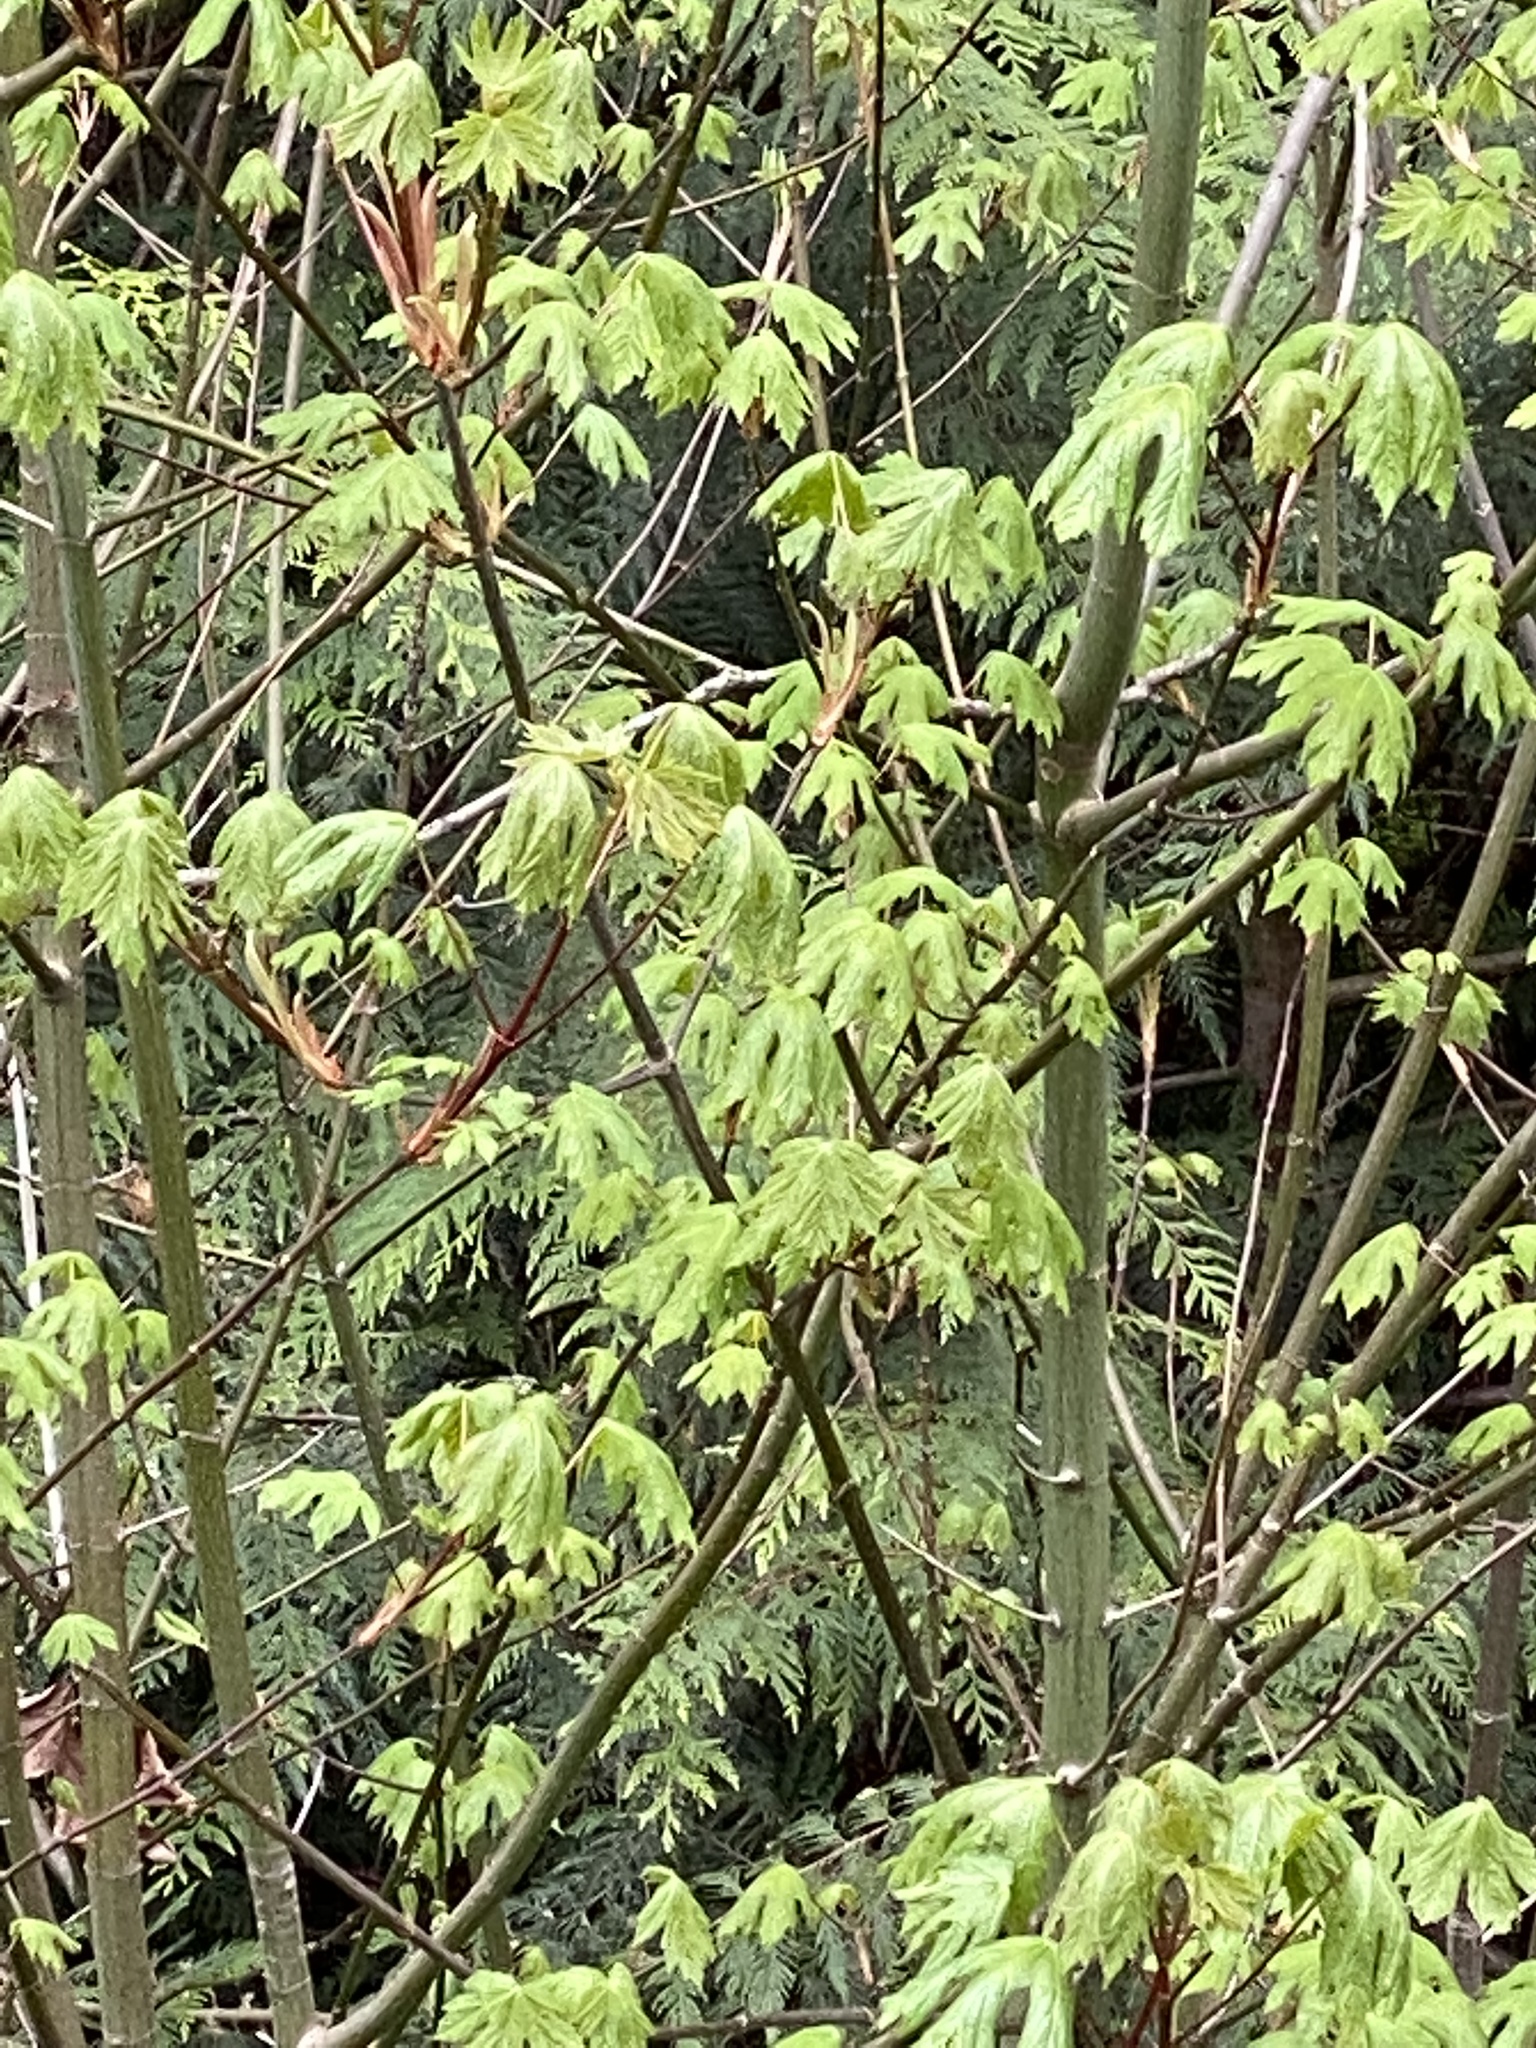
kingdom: Plantae
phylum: Tracheophyta
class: Magnoliopsida
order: Sapindales
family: Sapindaceae
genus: Acer
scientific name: Acer macrophyllum
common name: Oregon maple
